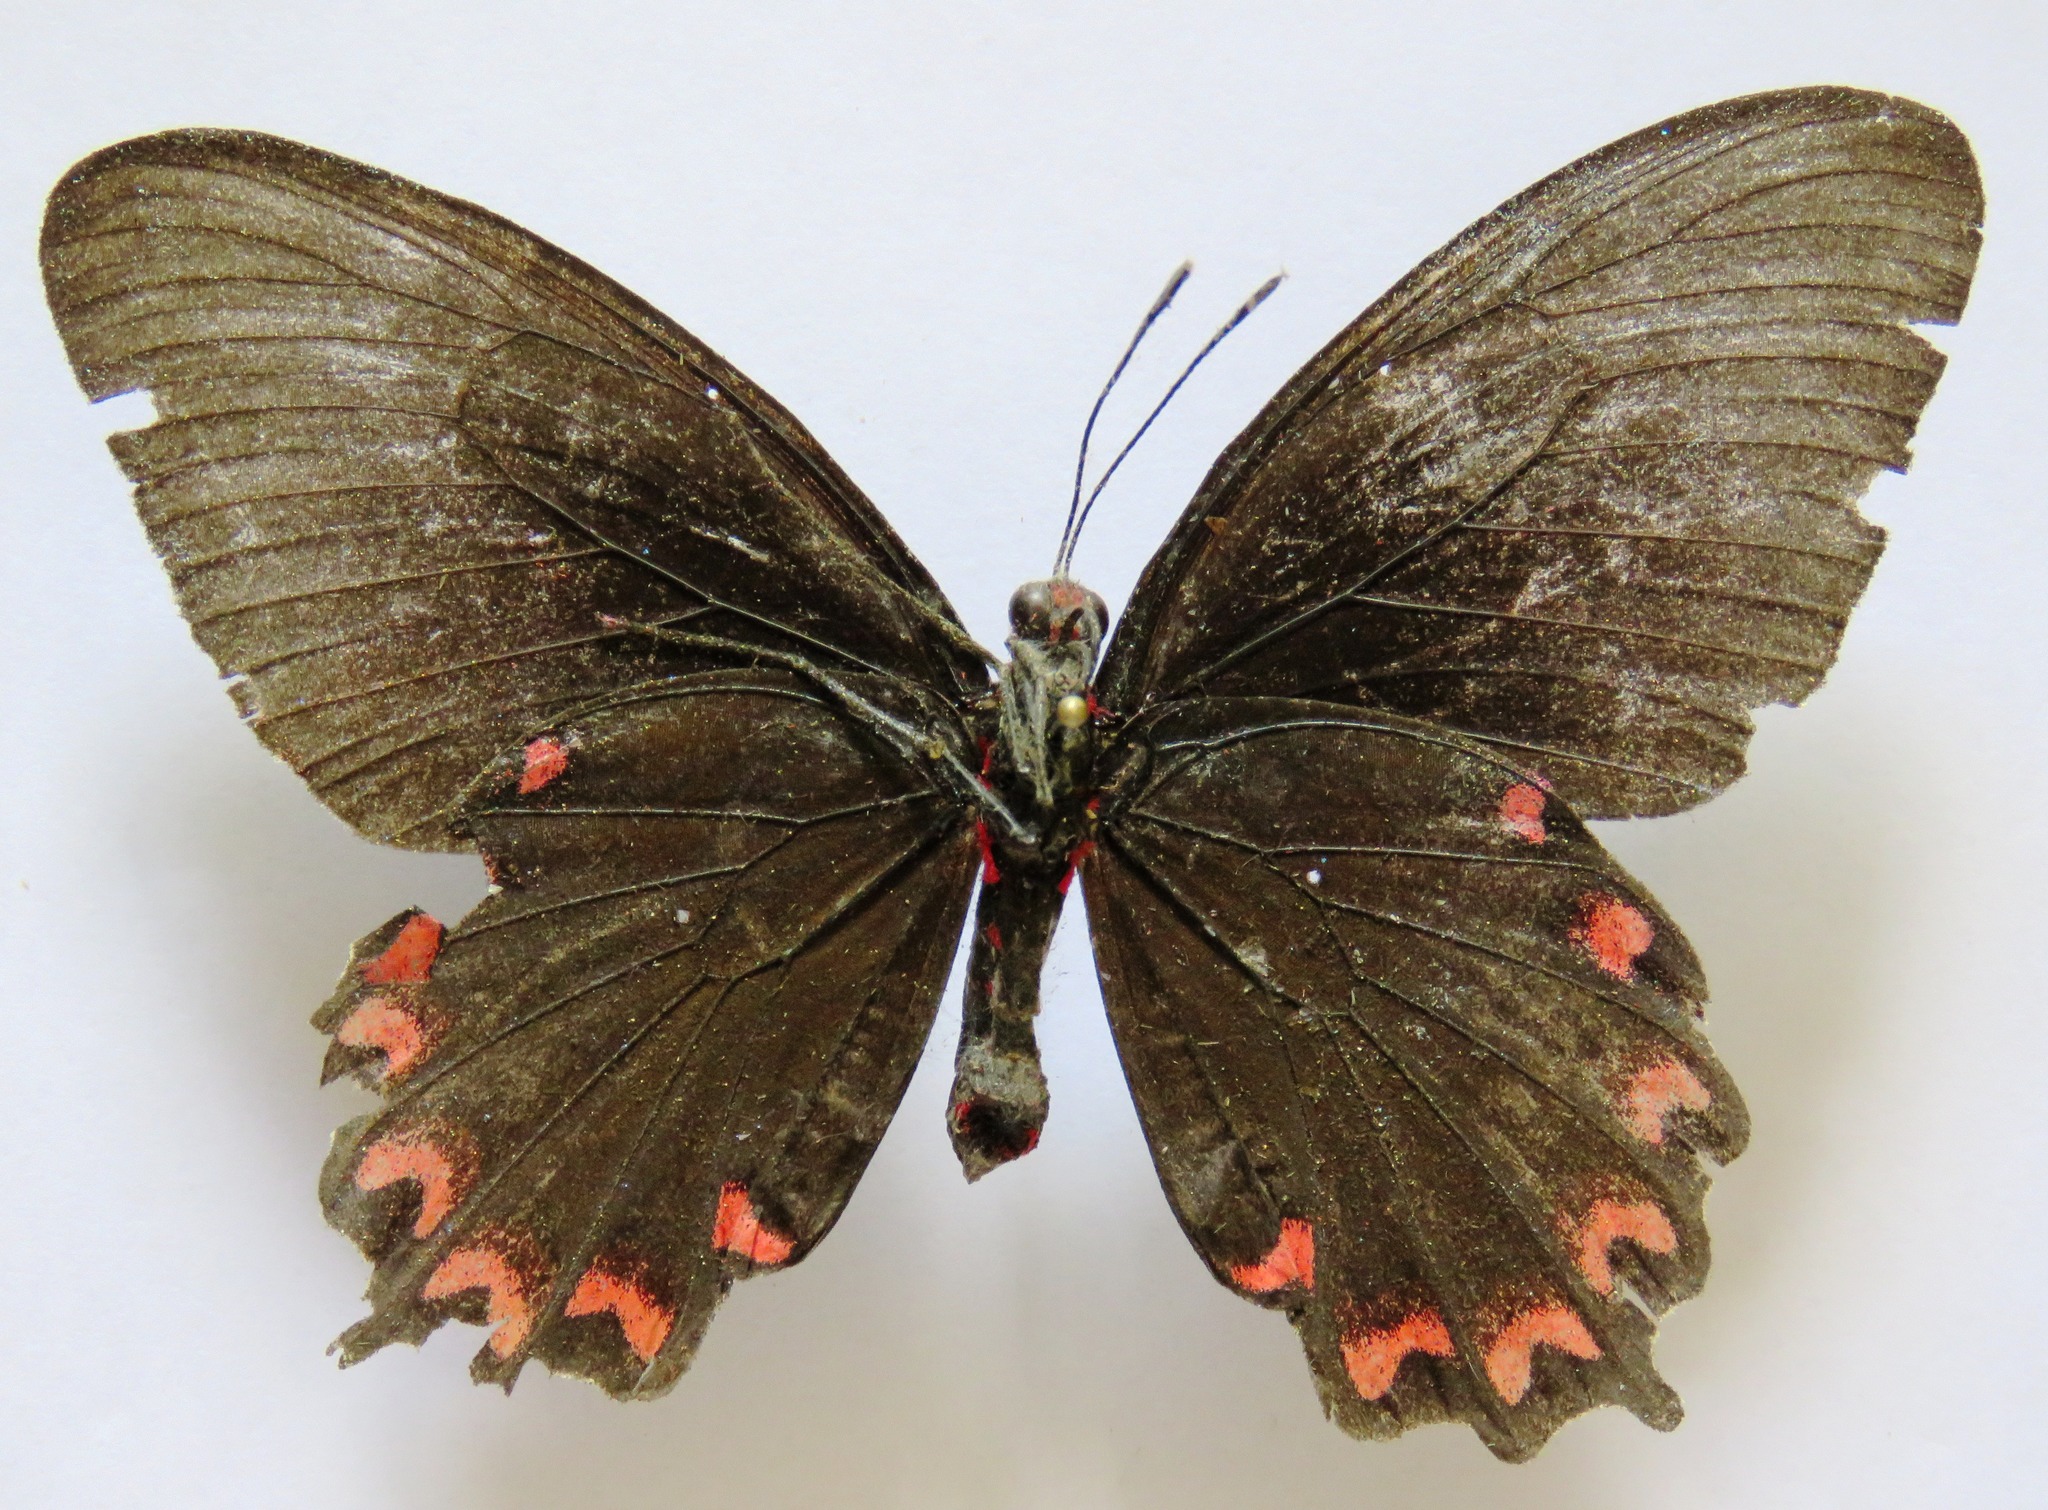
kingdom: Animalia
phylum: Arthropoda
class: Insecta
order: Lepidoptera
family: Papilionidae
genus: Parides
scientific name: Parides montezuma
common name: Montezuma's cattleheart
